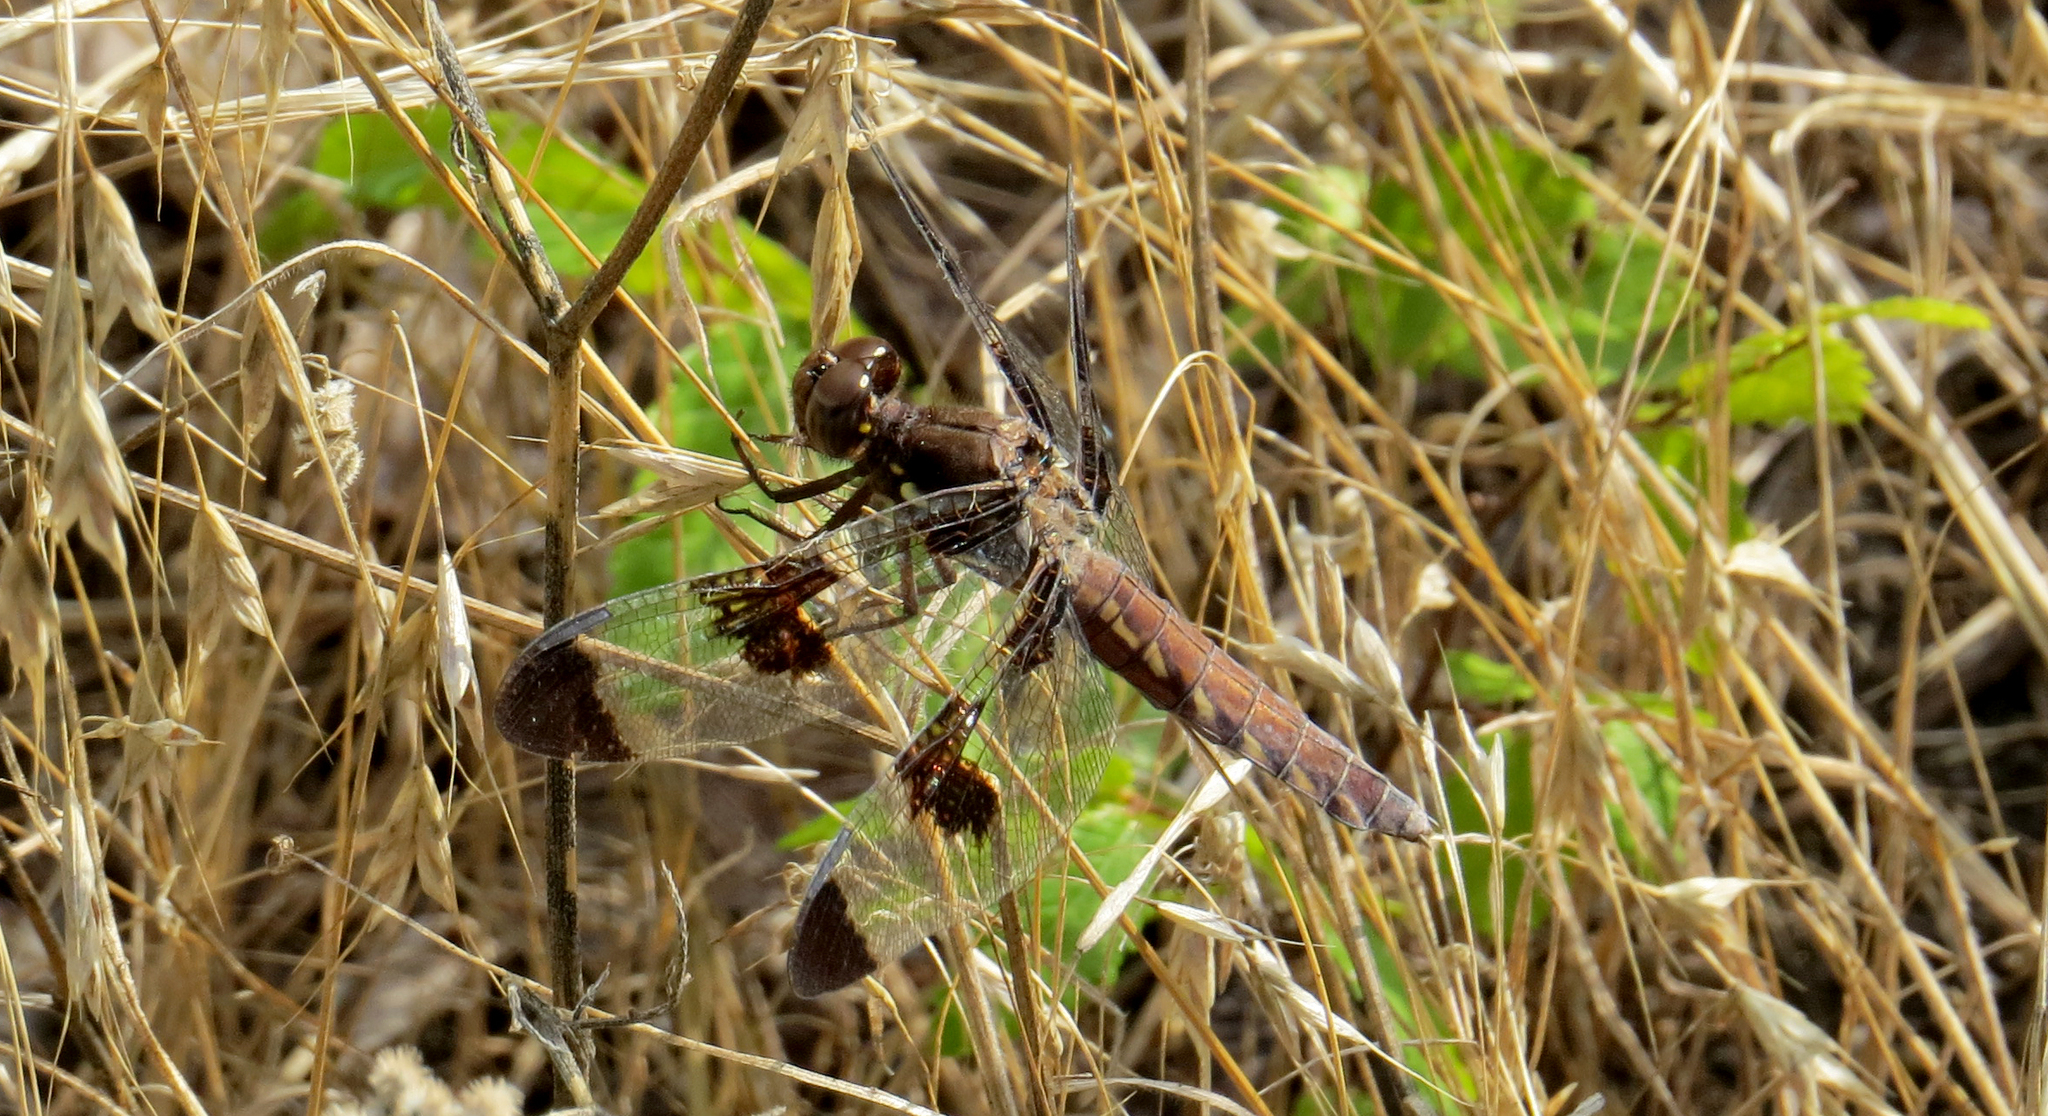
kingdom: Animalia
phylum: Arthropoda
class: Insecta
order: Odonata
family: Libellulidae
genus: Plathemis
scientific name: Plathemis lydia
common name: Common whitetail
